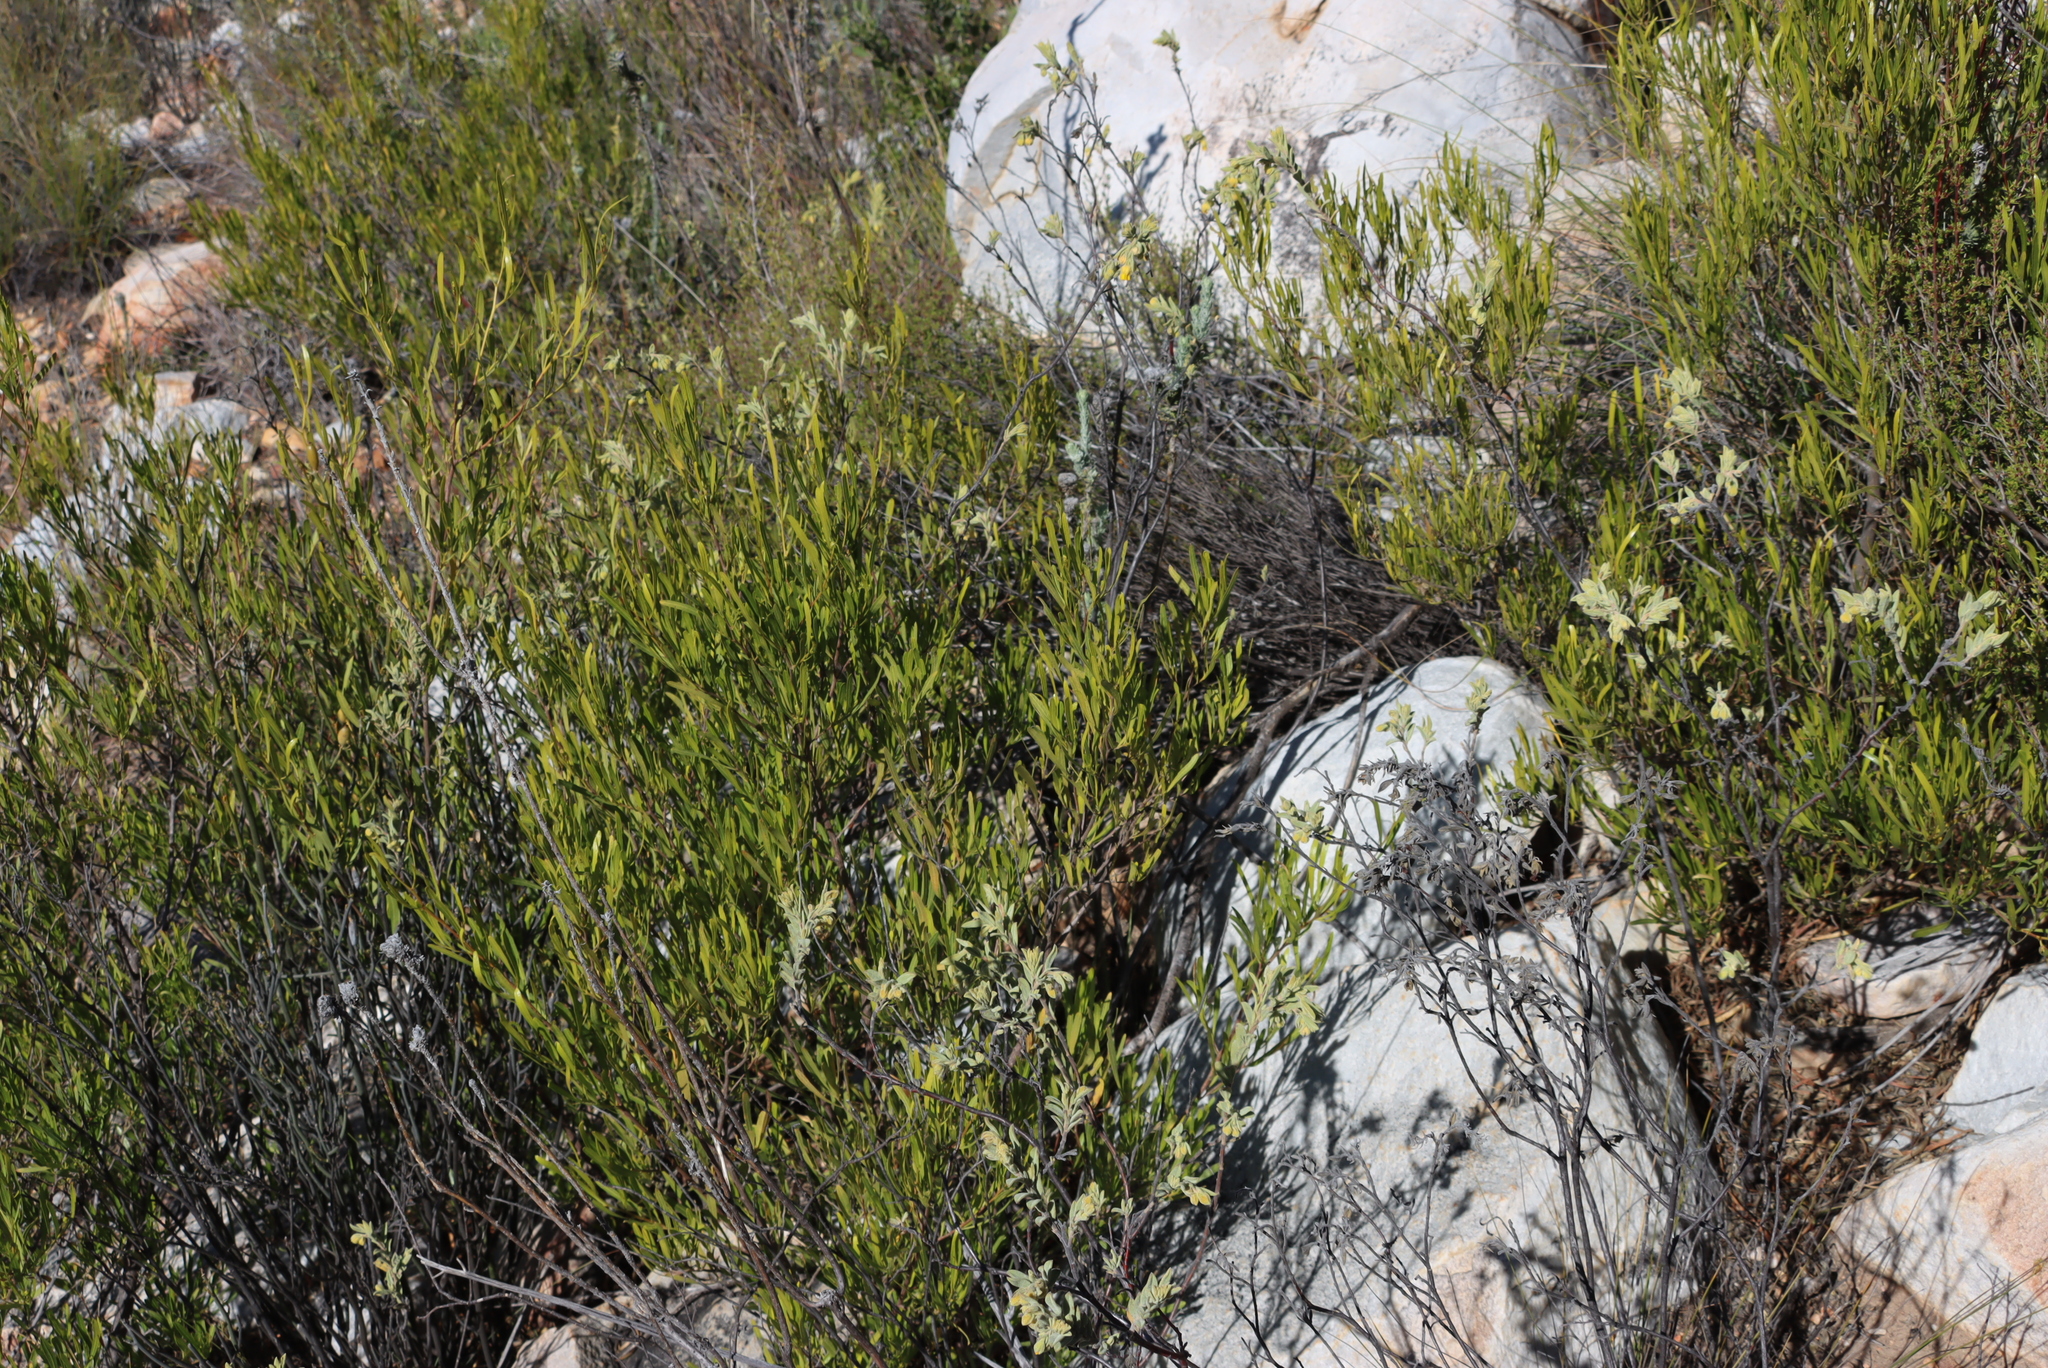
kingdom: Plantae
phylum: Tracheophyta
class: Magnoliopsida
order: Sapindales
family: Sapindaceae
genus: Dodonaea
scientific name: Dodonaea viscosa
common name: Hopbush
